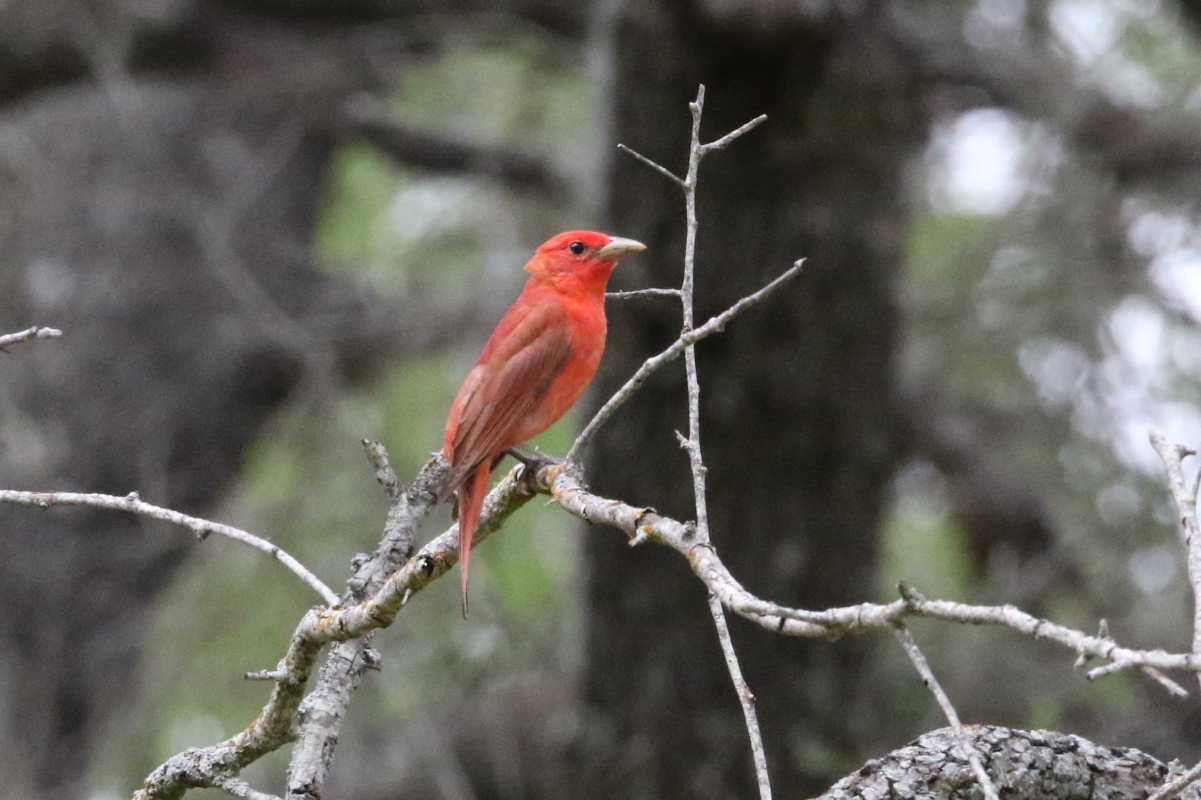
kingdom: Animalia
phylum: Chordata
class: Aves
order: Passeriformes
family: Cardinalidae
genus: Piranga
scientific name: Piranga rubra
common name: Summer tanager
